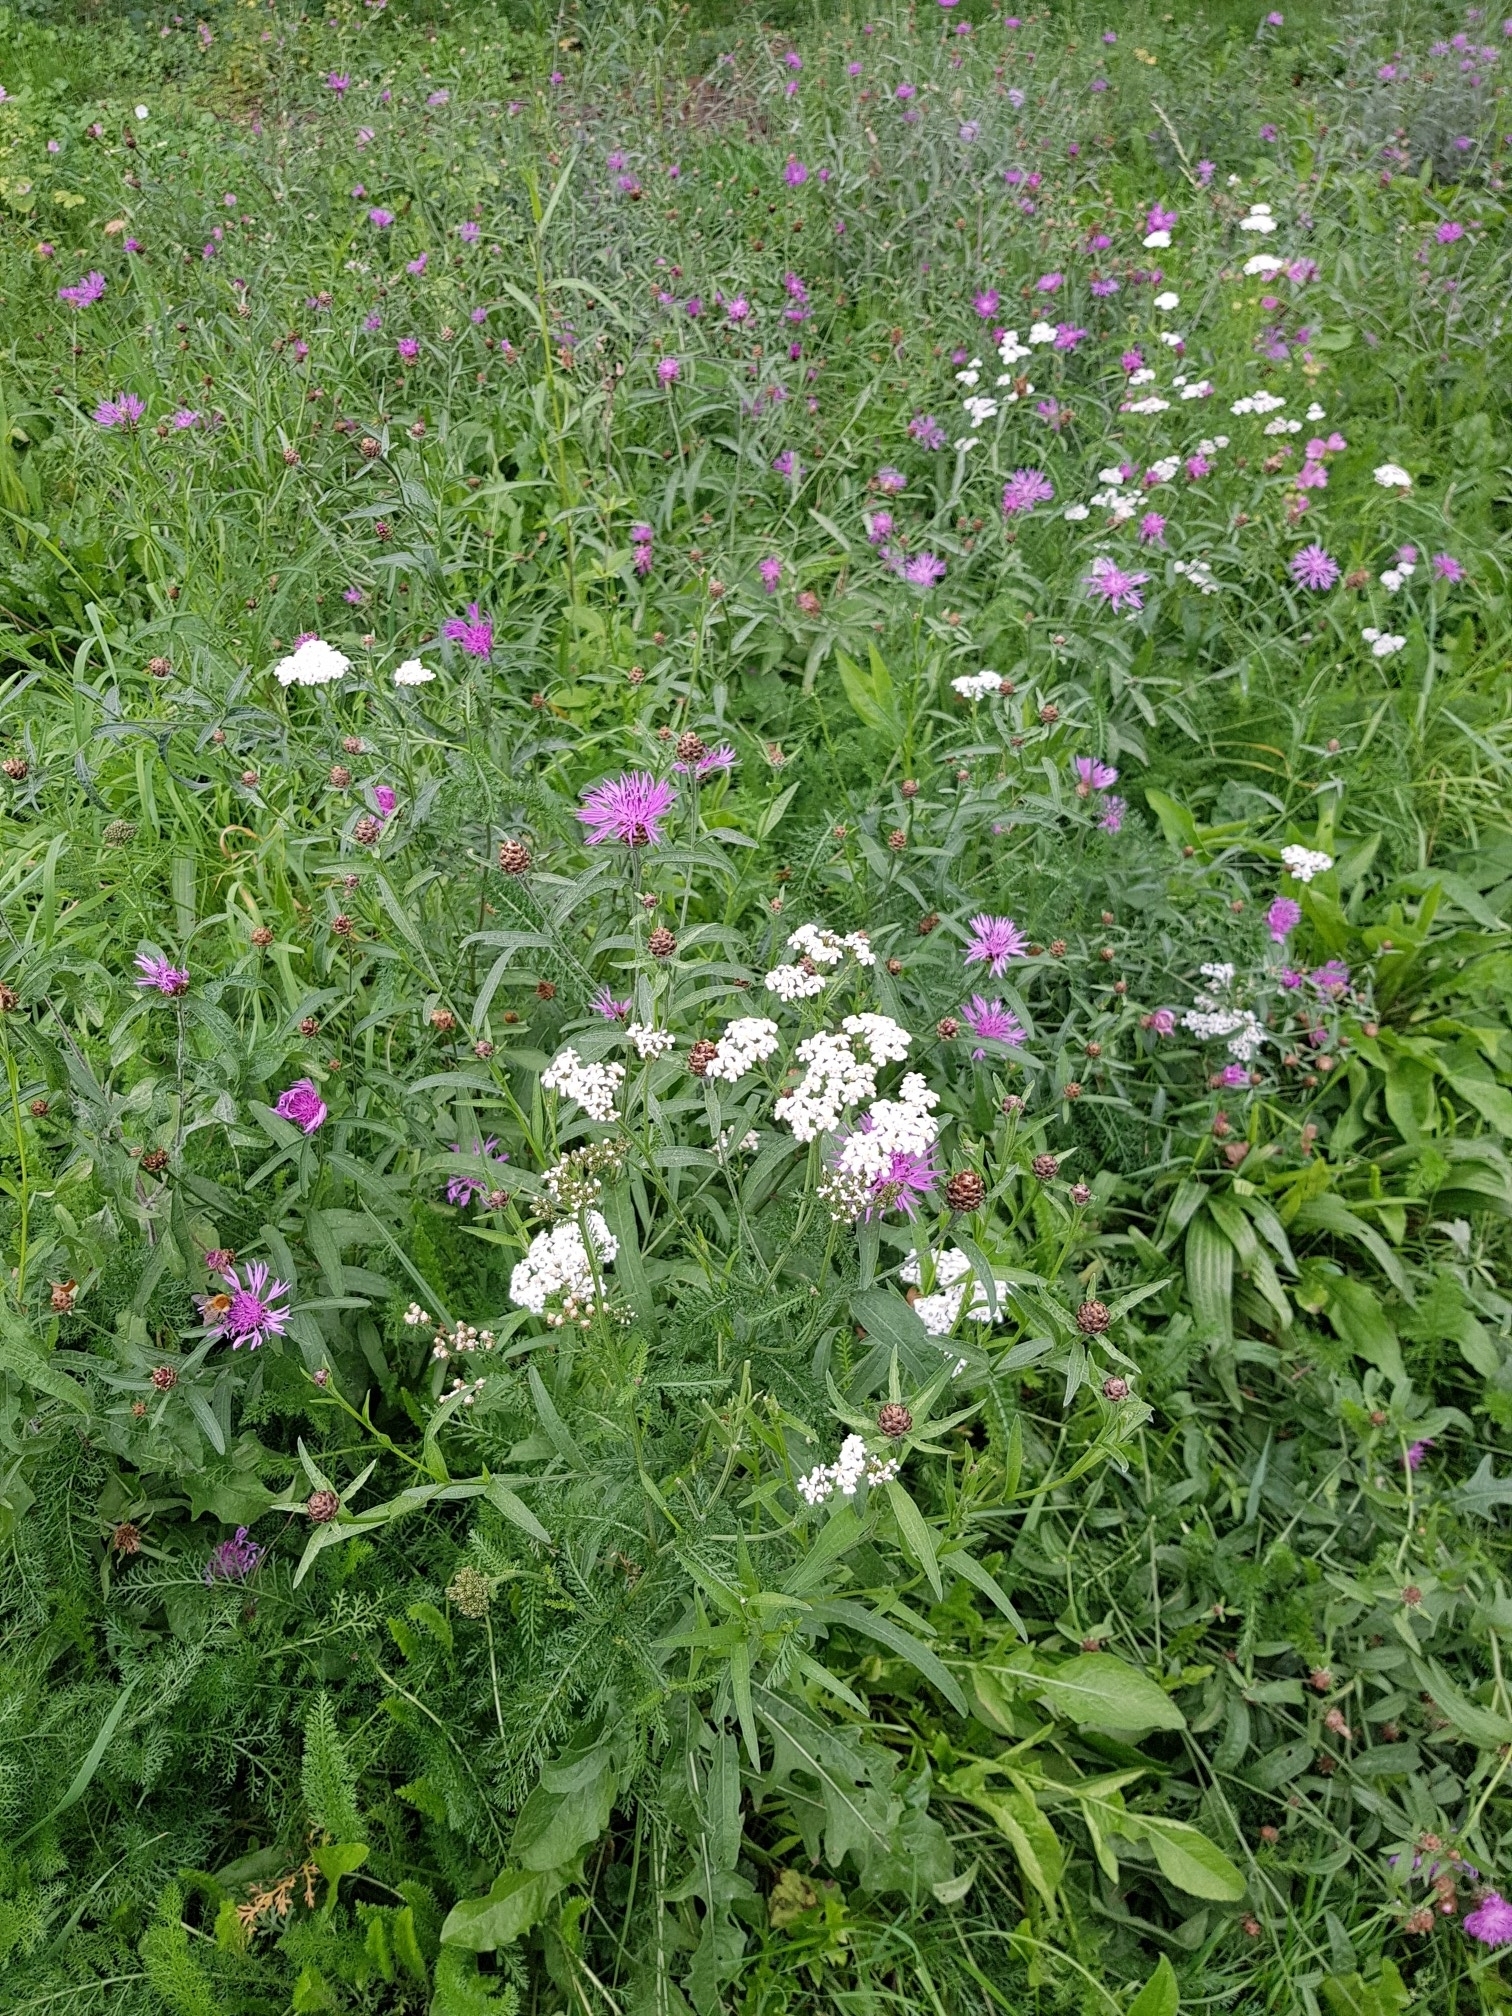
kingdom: Plantae
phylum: Tracheophyta
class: Magnoliopsida
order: Asterales
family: Asteraceae
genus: Achillea
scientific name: Achillea millefolium
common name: Yarrow
